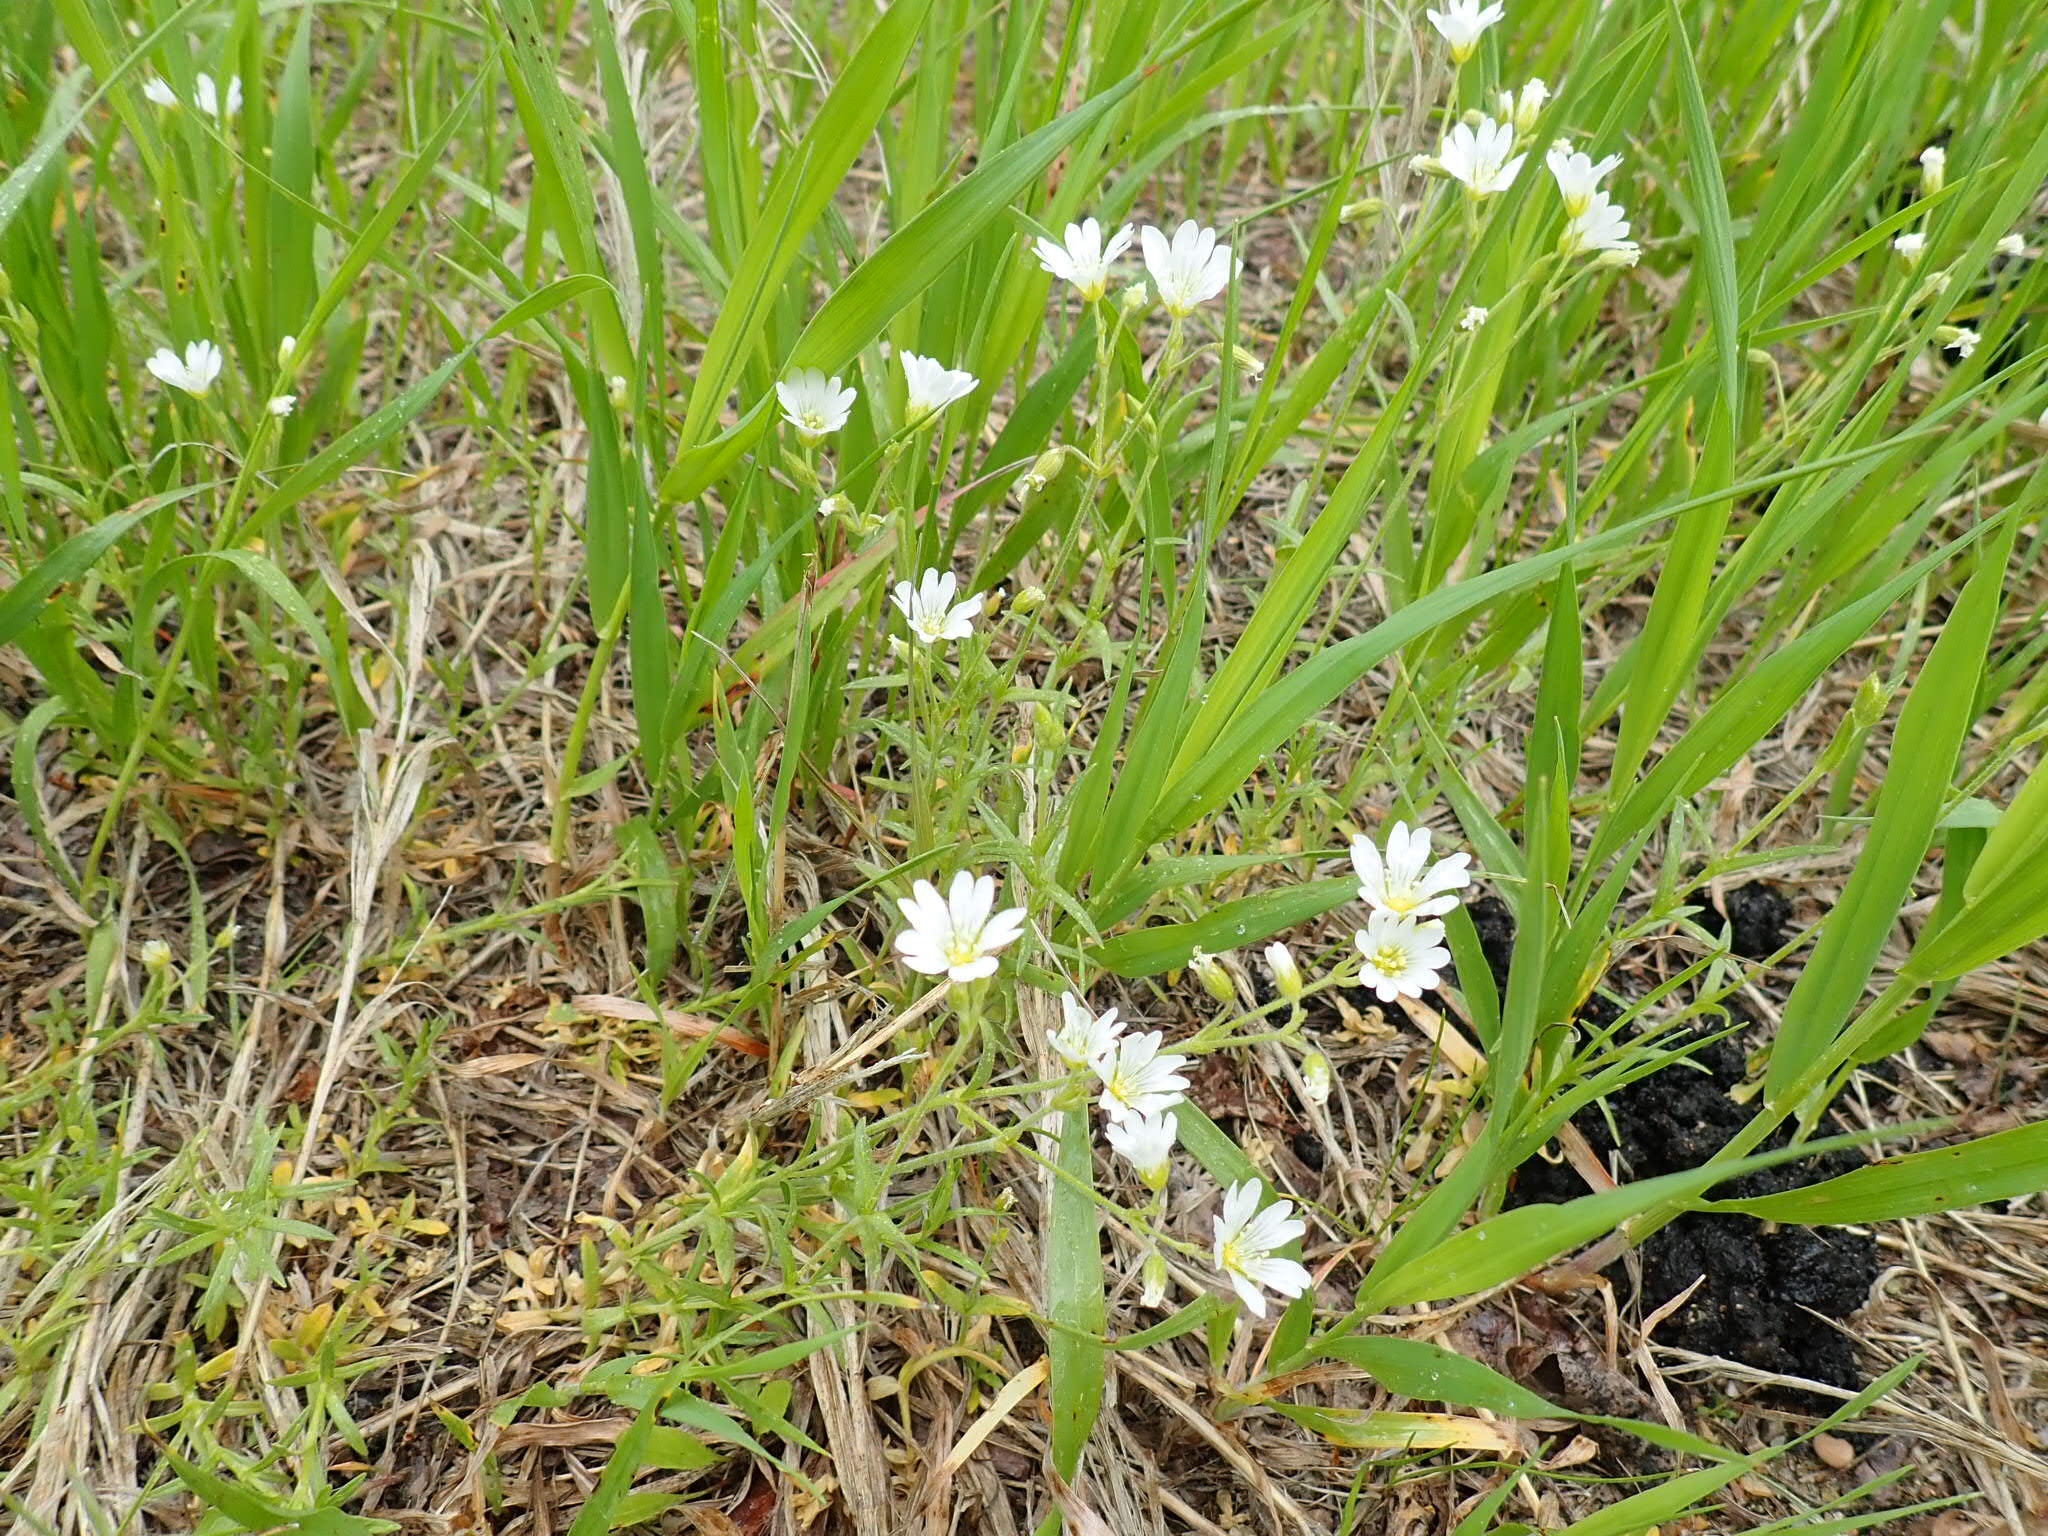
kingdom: Plantae
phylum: Tracheophyta
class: Magnoliopsida
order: Caryophyllales
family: Caryophyllaceae
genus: Cerastium
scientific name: Cerastium arvense
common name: Field mouse-ear
